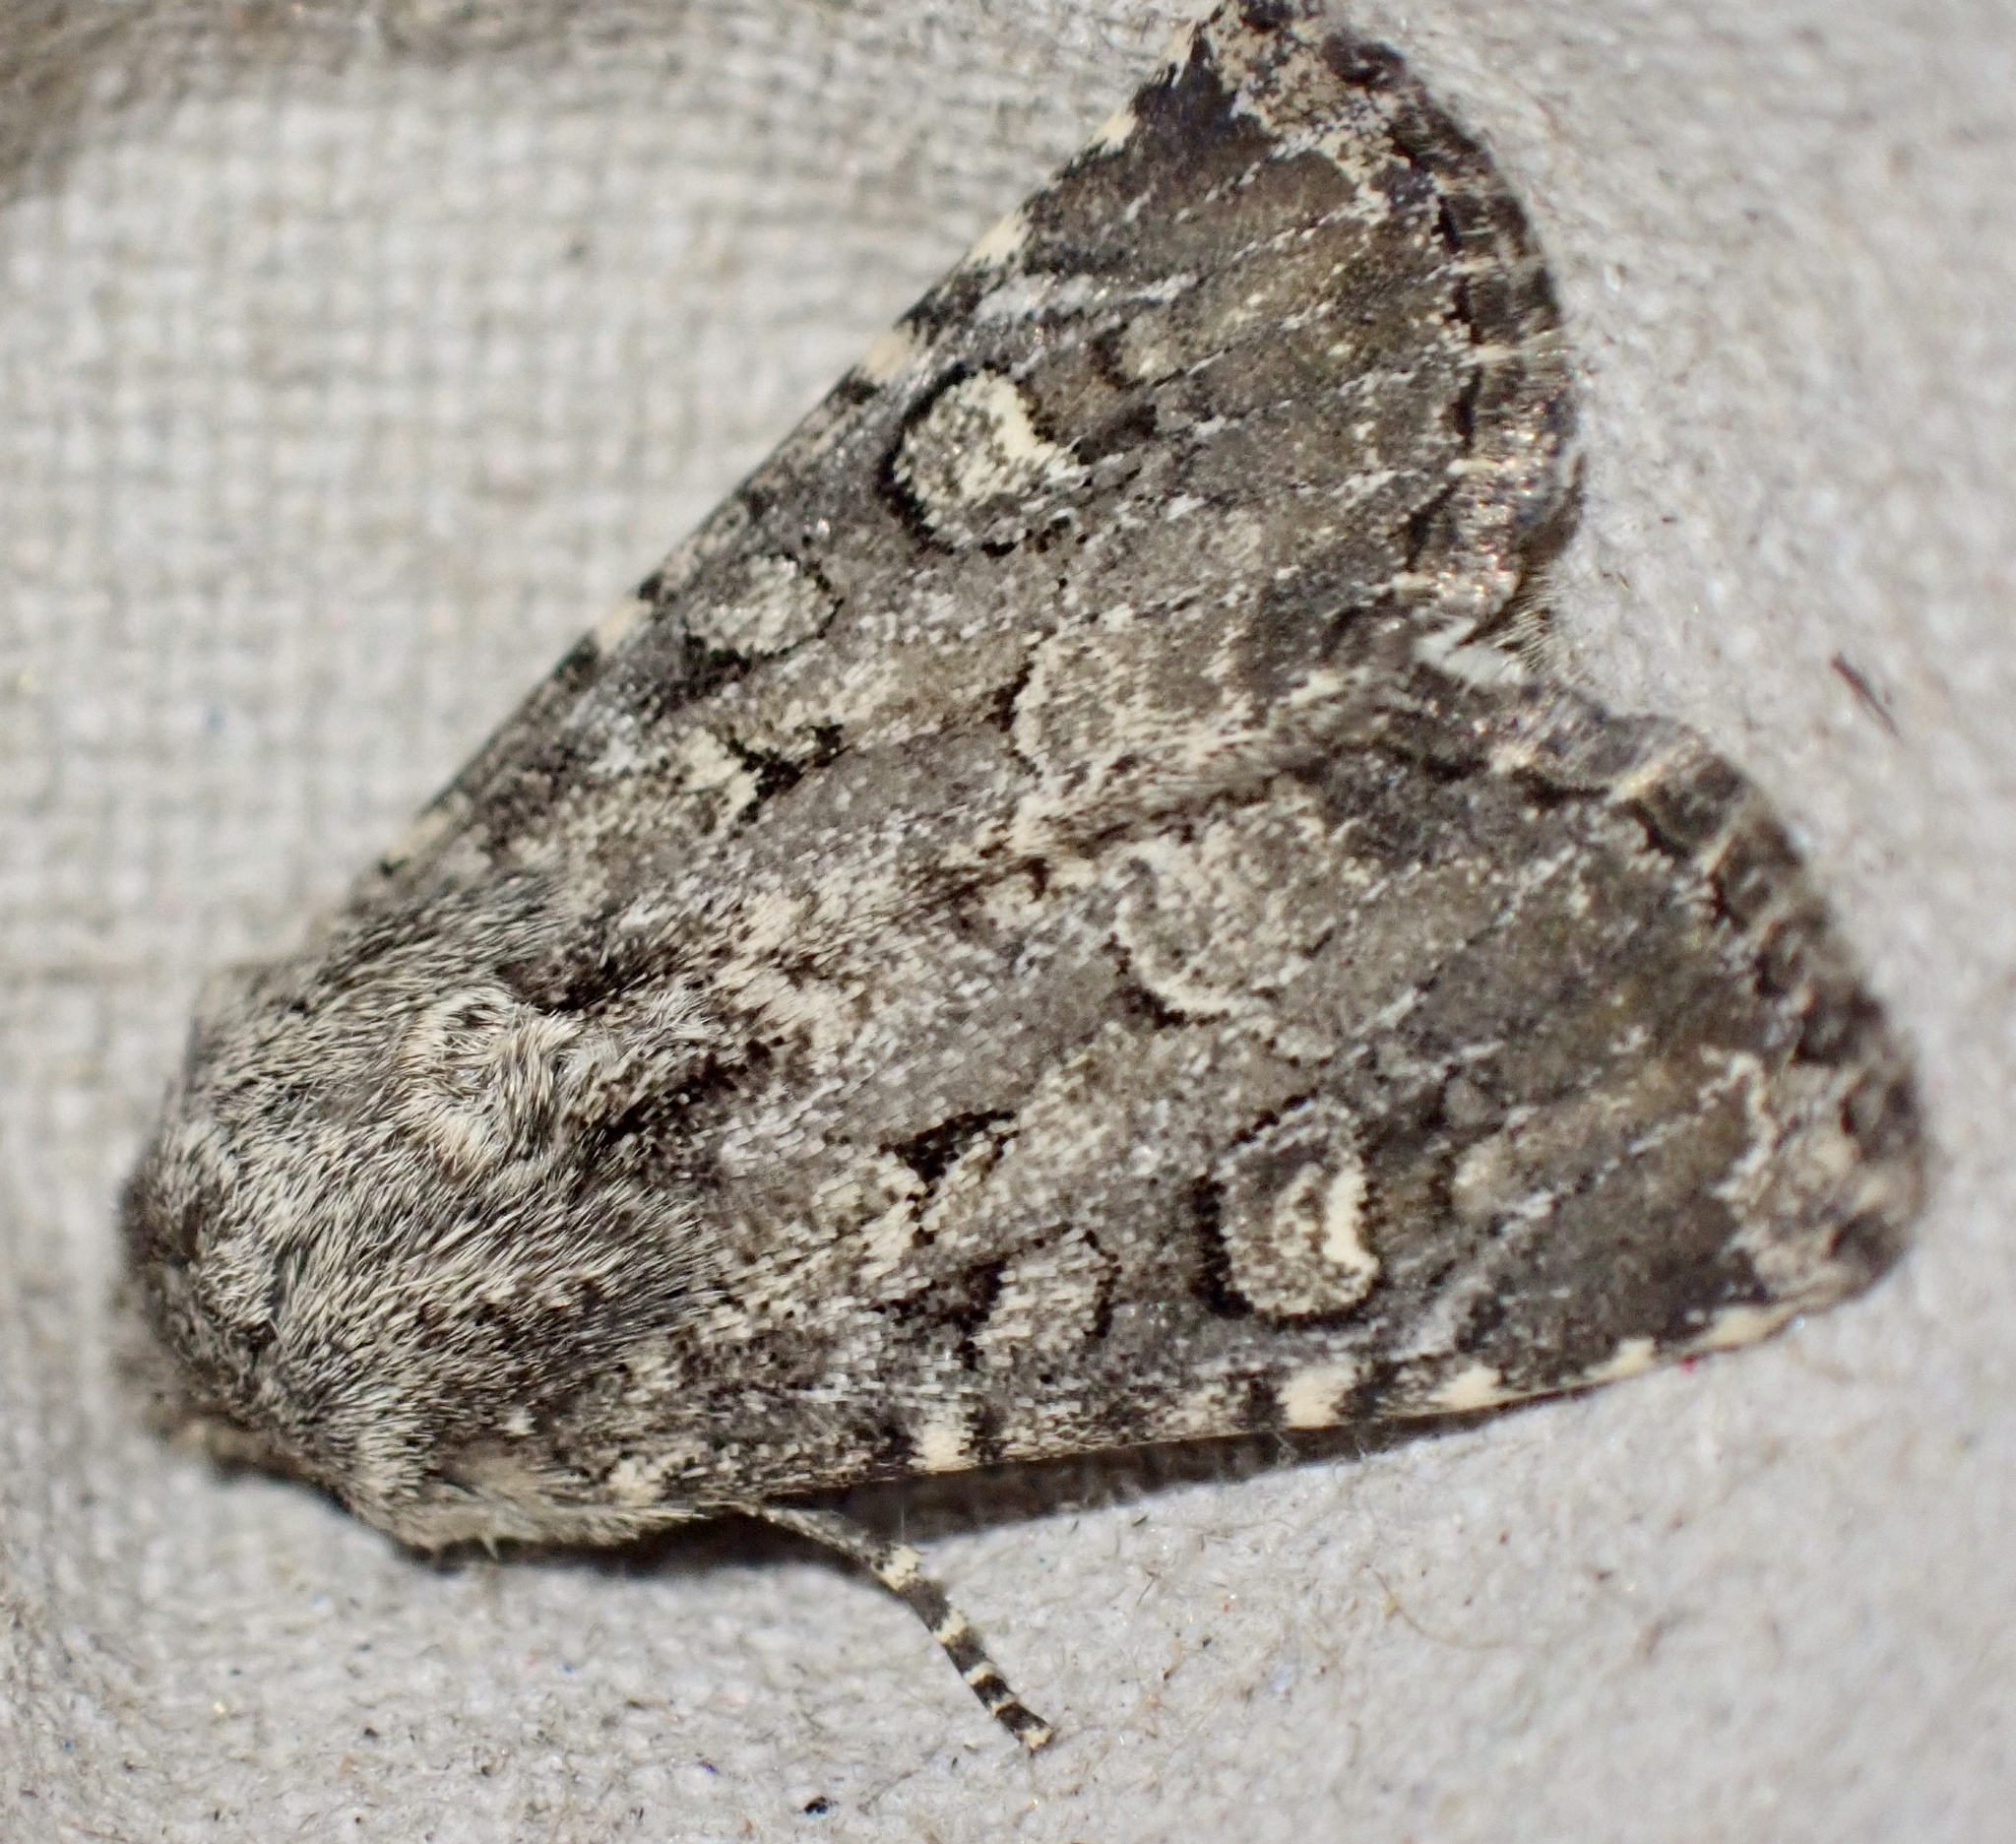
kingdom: Animalia
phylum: Arthropoda
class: Insecta
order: Lepidoptera
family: Noctuidae
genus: Luperina
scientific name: Luperina testacea
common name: Flounced rustic
